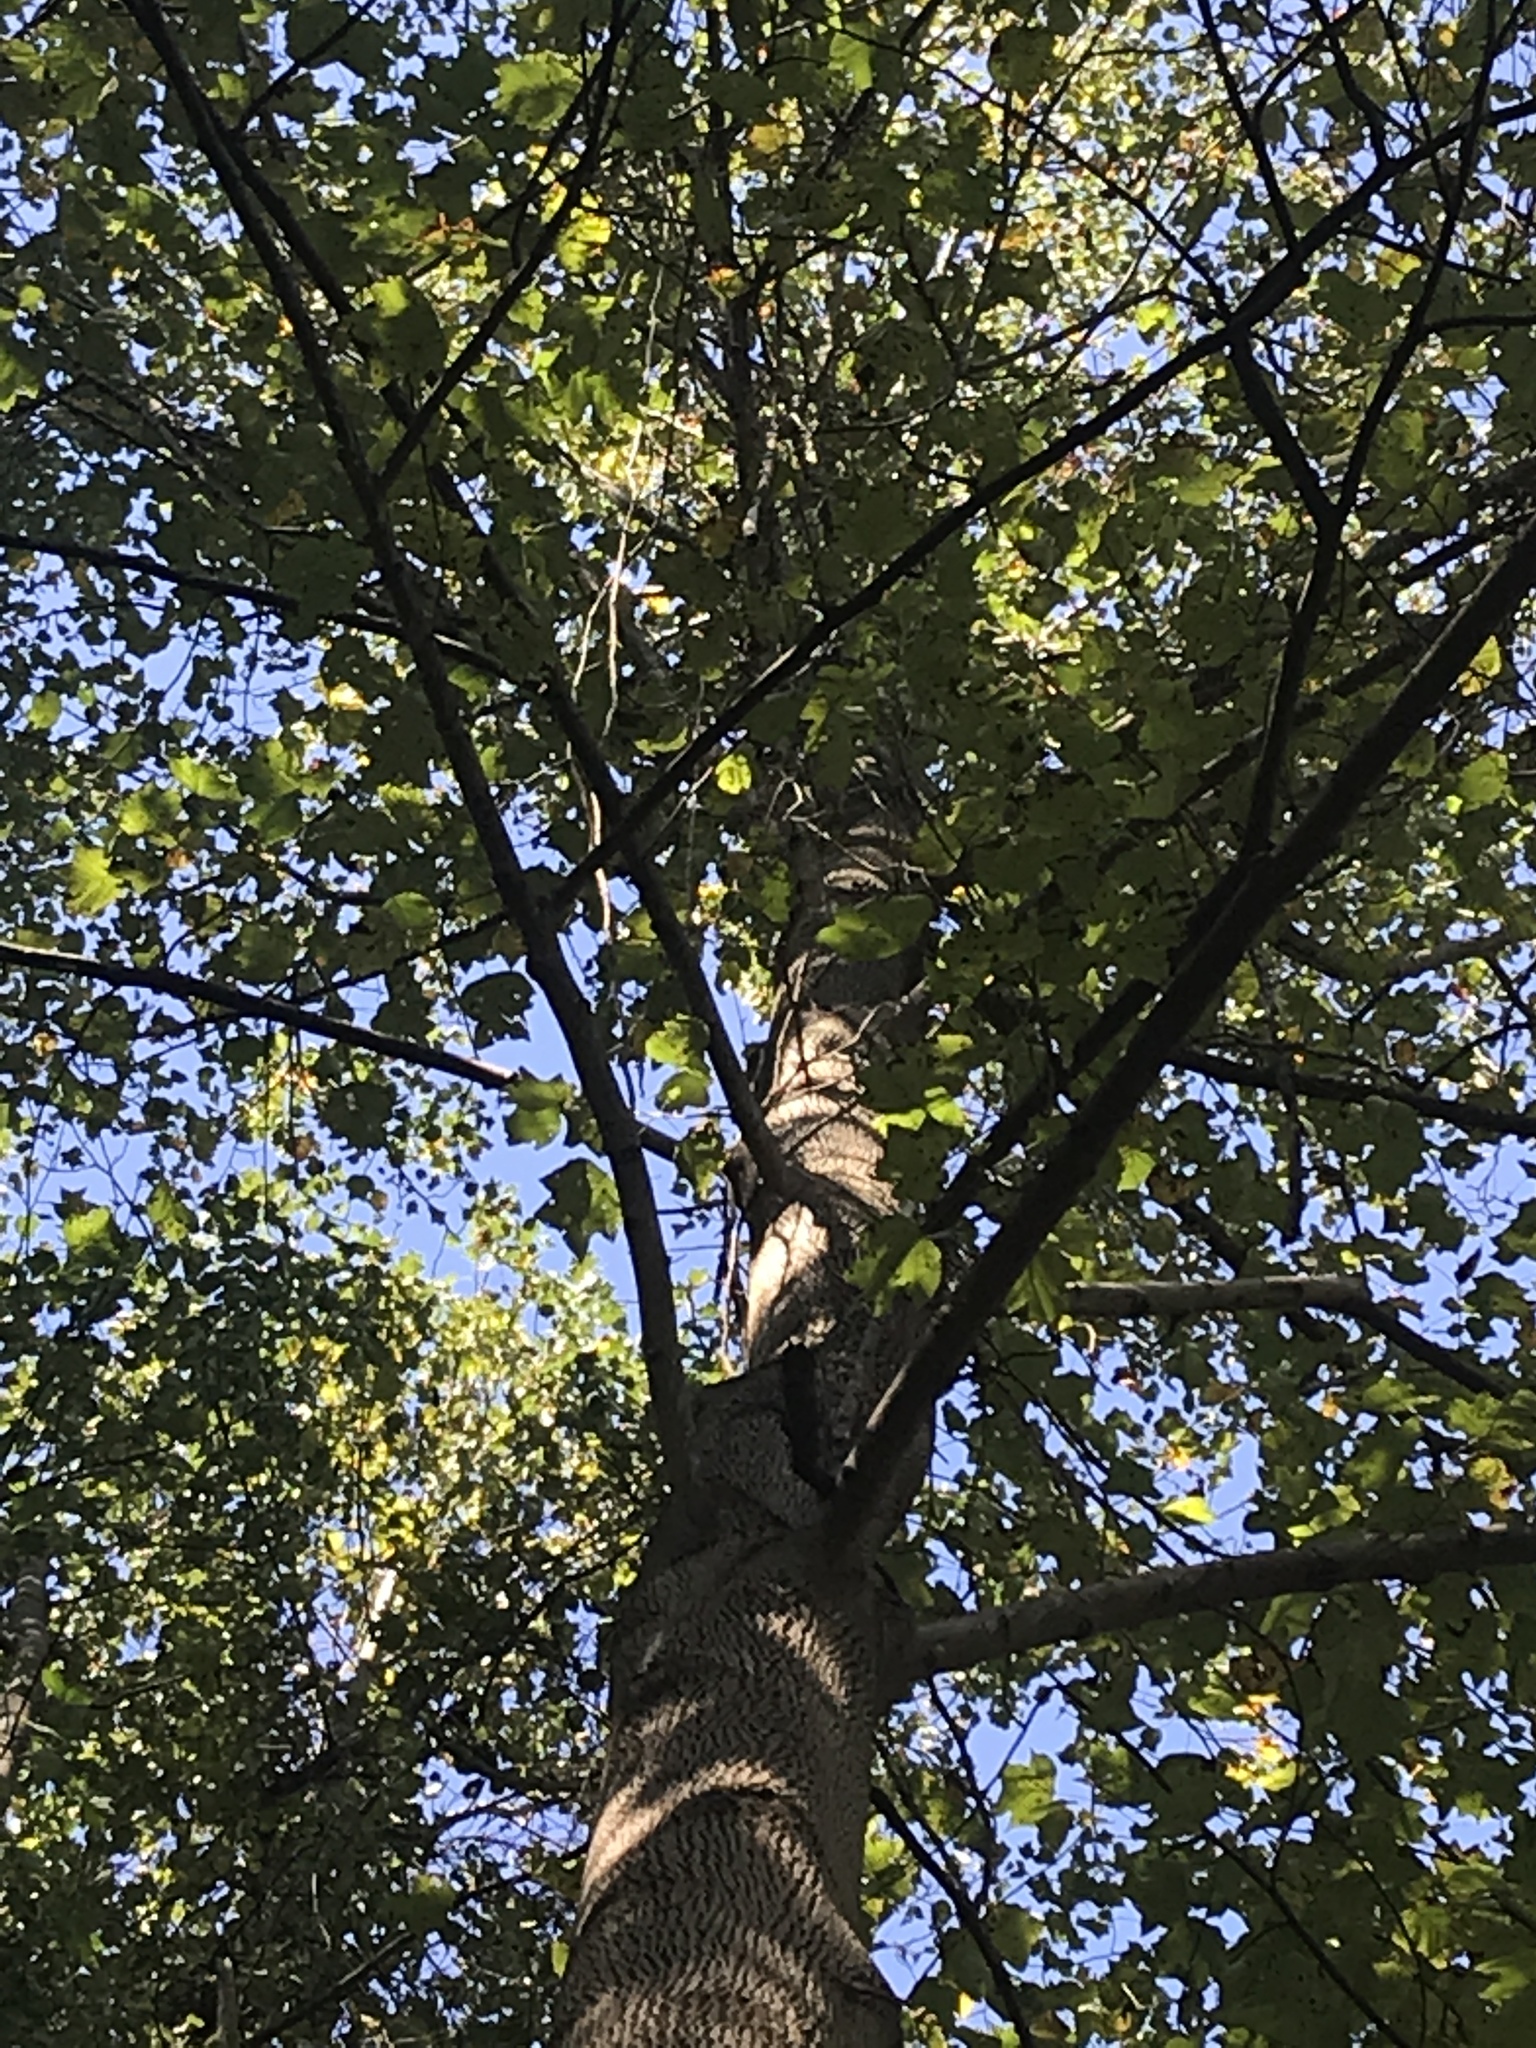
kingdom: Plantae
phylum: Tracheophyta
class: Magnoliopsida
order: Magnoliales
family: Magnoliaceae
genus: Liriodendron
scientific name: Liriodendron tulipifera
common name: Tulip tree
